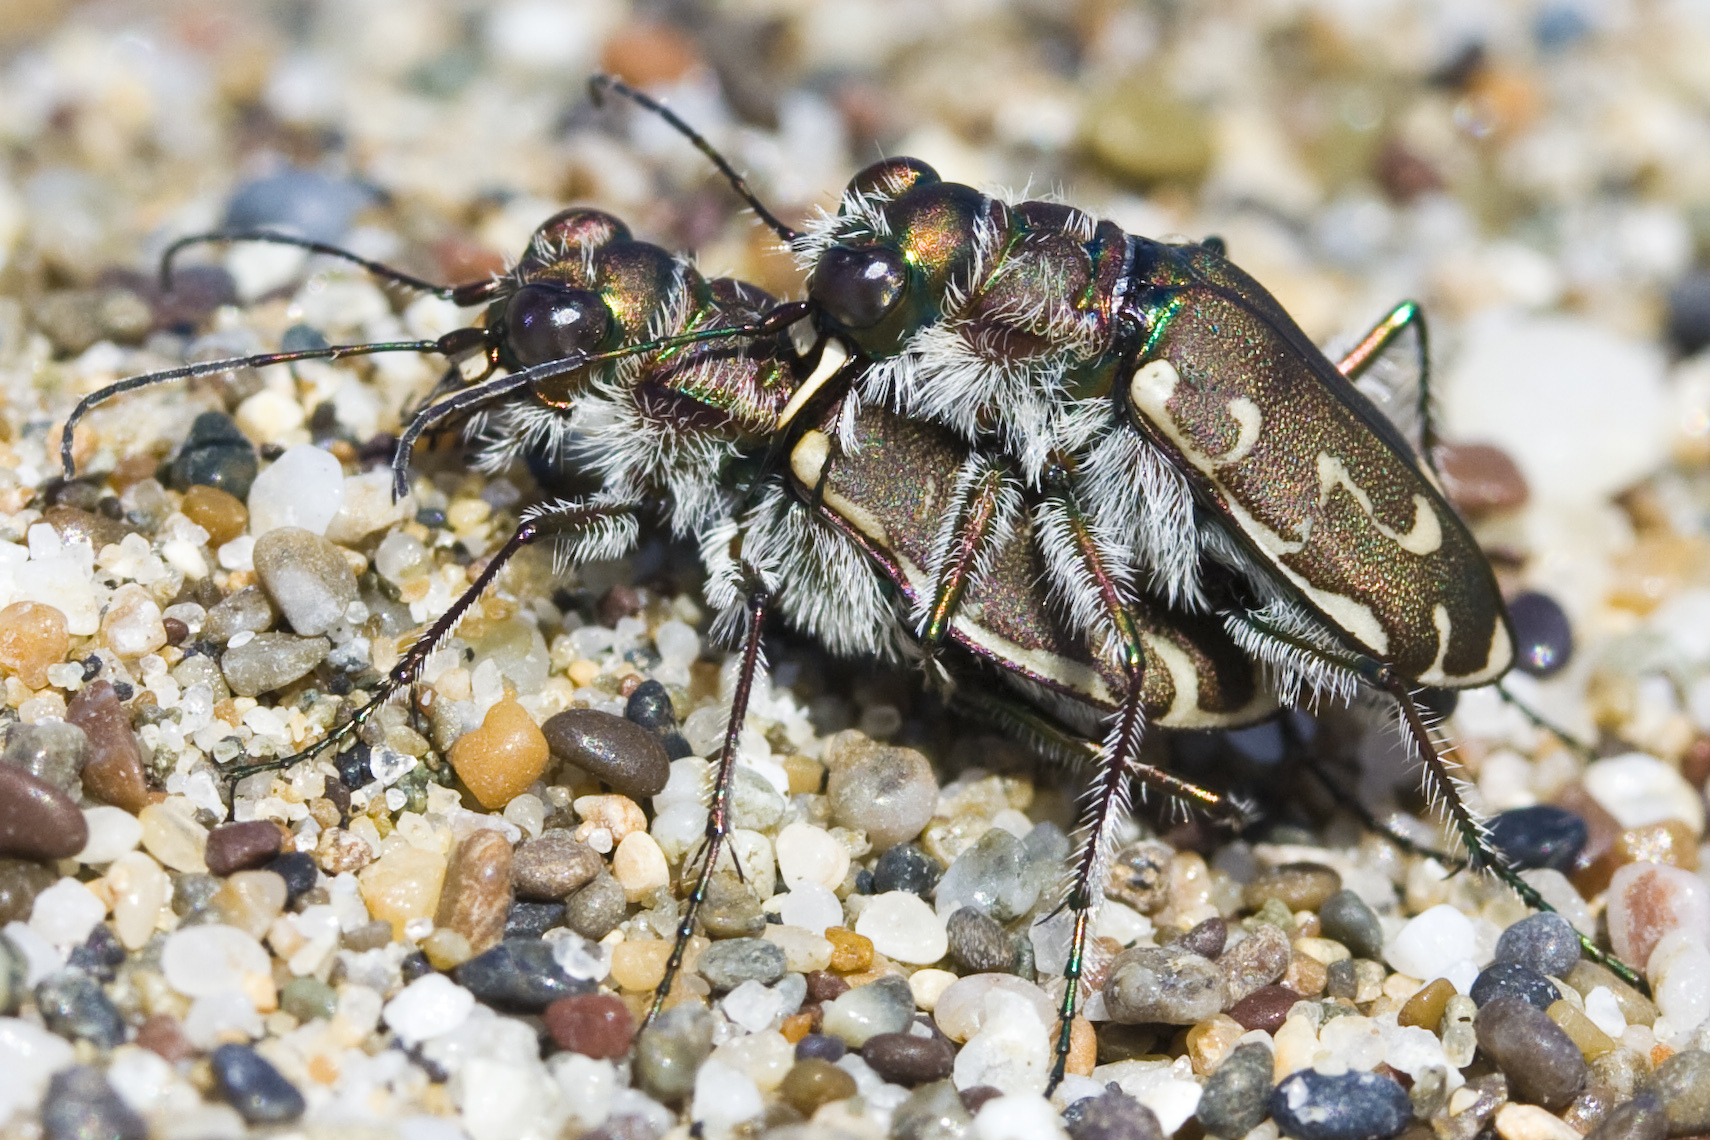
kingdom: Animalia
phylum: Arthropoda
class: Insecta
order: Coleoptera
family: Carabidae
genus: Cicindela
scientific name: Cicindela hirticollis
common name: Hairy-necked tiger beetle
